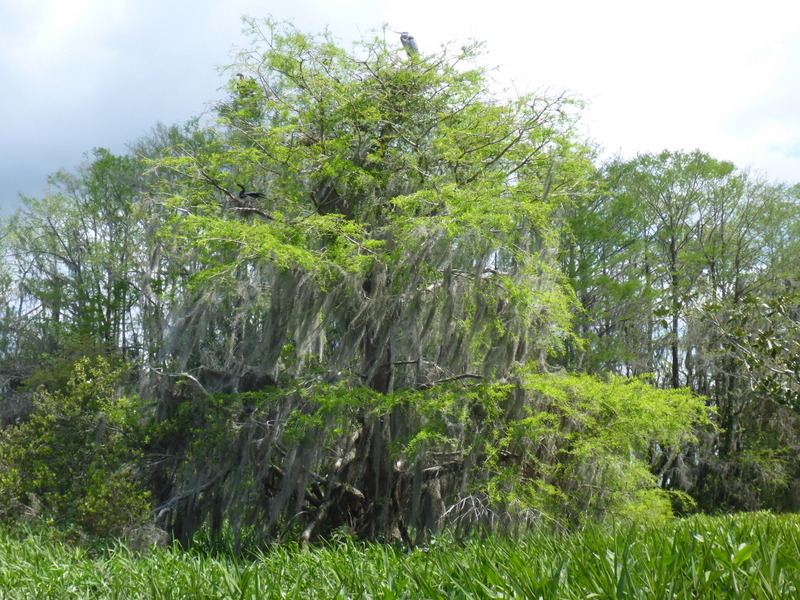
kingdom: Animalia
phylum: Chordata
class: Aves
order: Pelecaniformes
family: Ardeidae
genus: Ardea
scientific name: Ardea herodias
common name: Great blue heron
